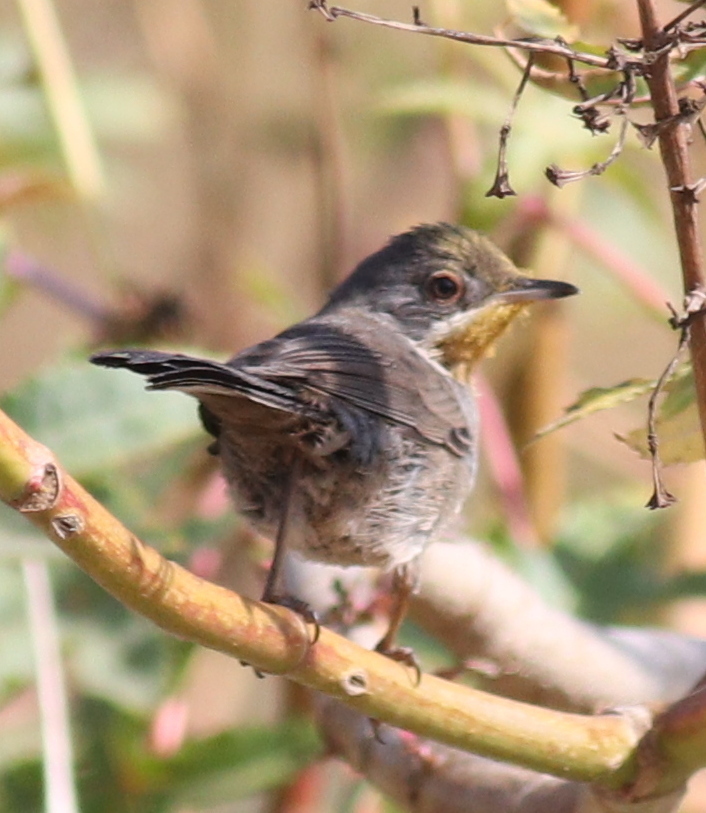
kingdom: Animalia
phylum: Chordata
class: Aves
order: Passeriformes
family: Sylviidae
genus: Curruca
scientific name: Curruca iberiae
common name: Western subalpine warbler
